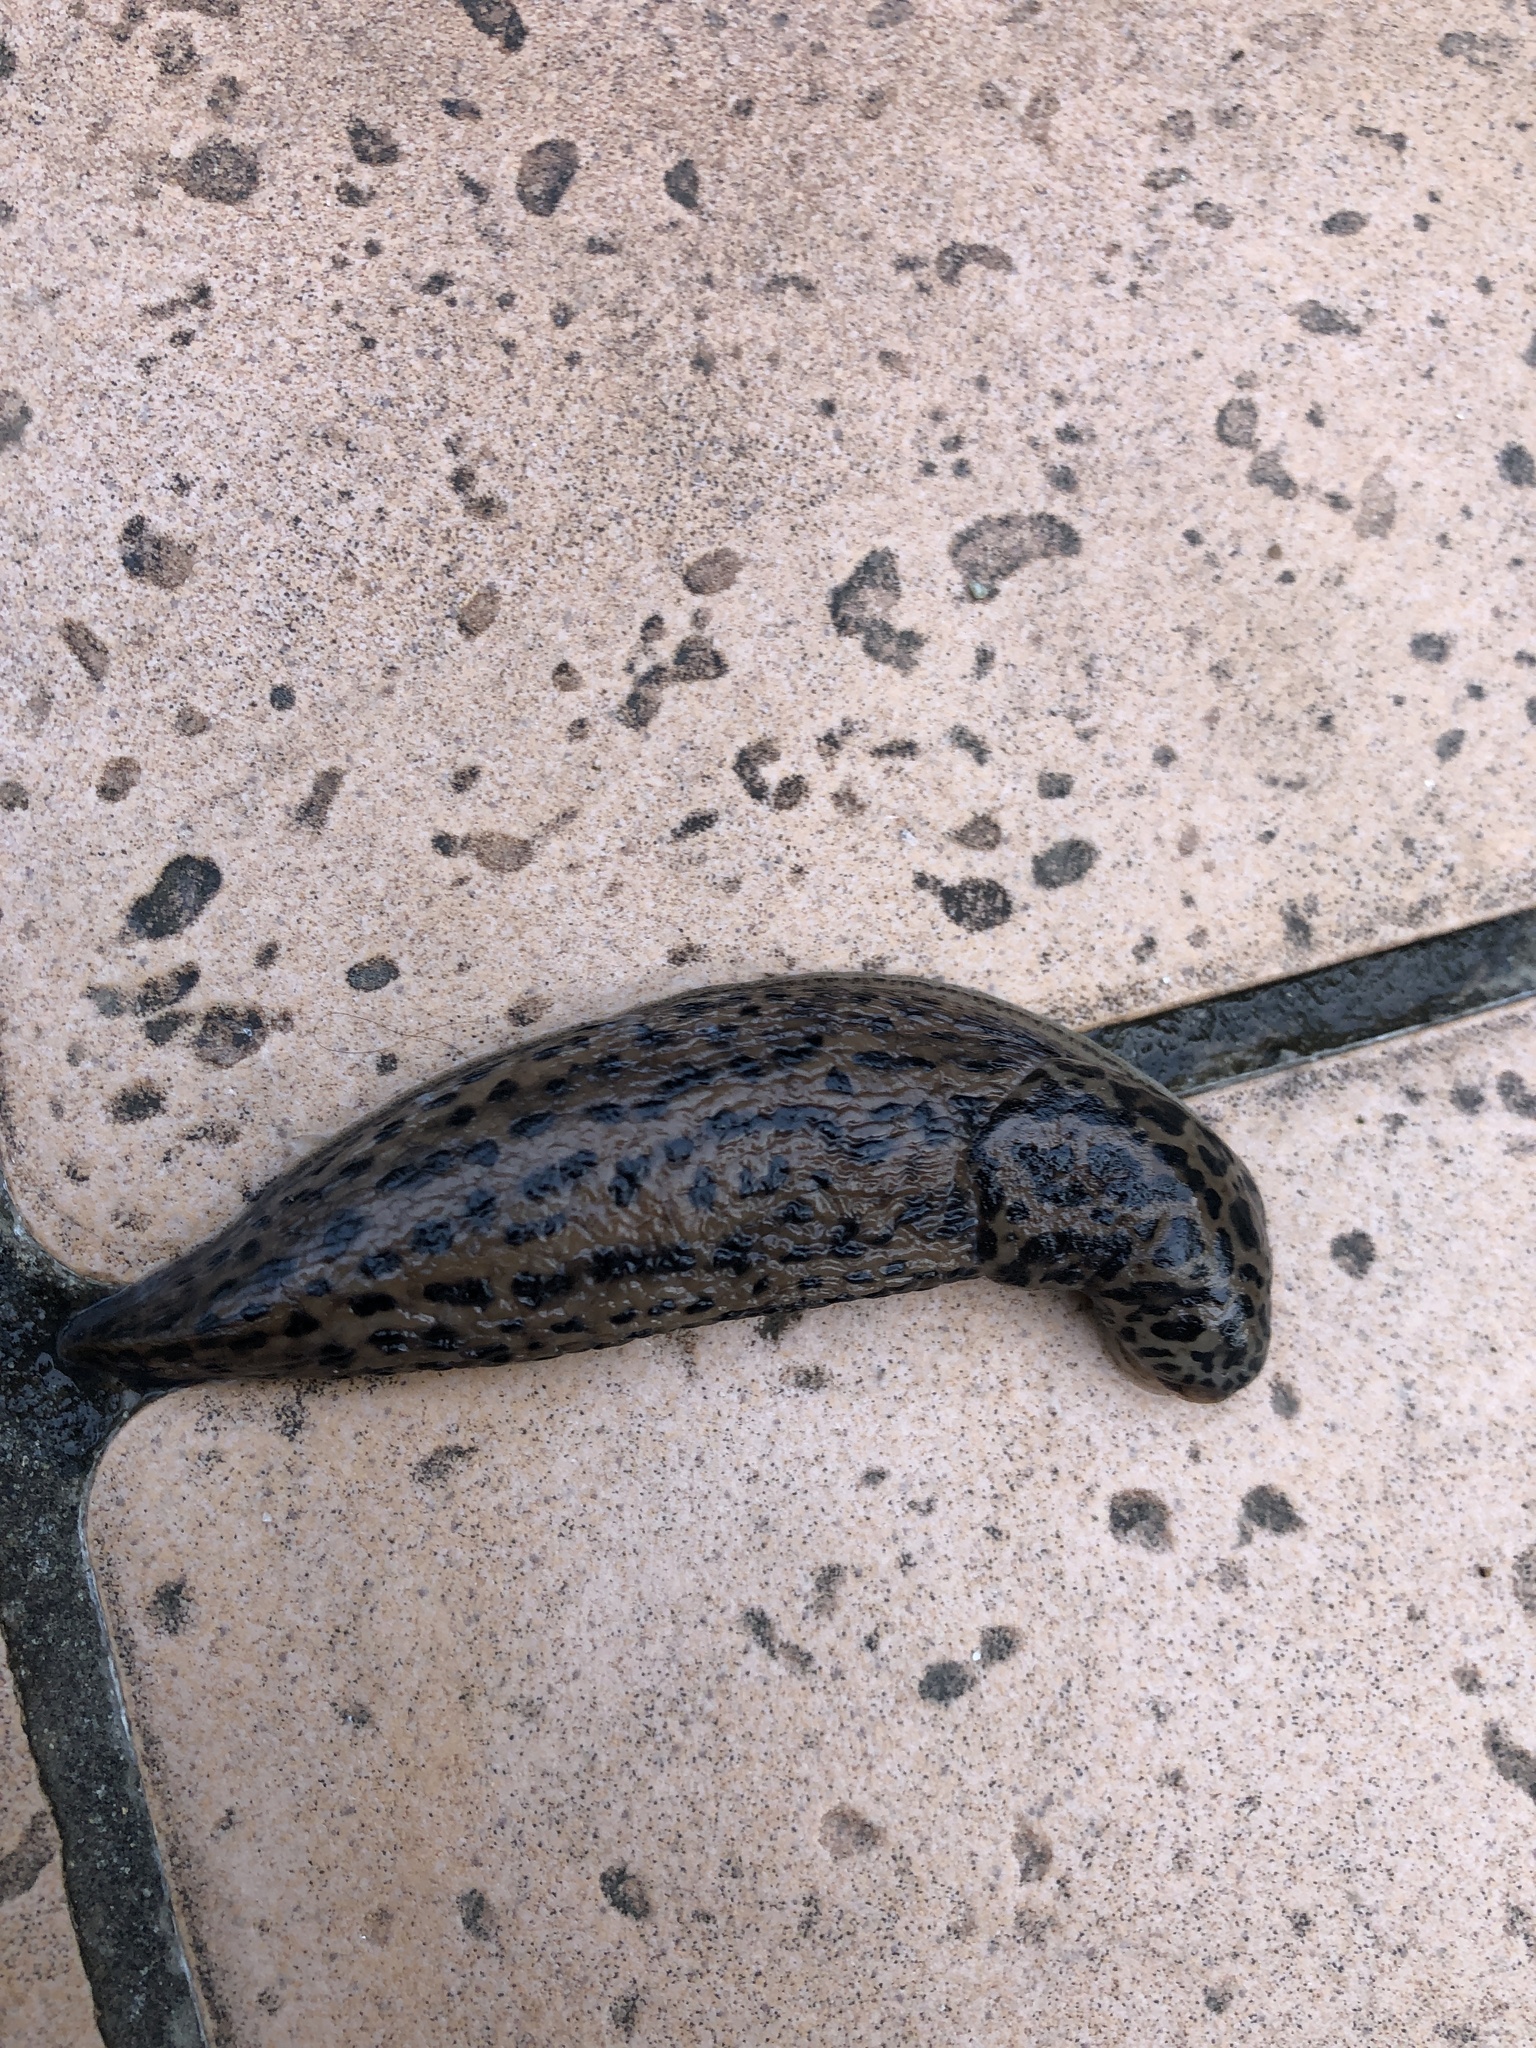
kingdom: Animalia
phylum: Mollusca
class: Gastropoda
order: Stylommatophora
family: Limacidae
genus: Limax
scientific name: Limax maximus
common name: Great grey slug
